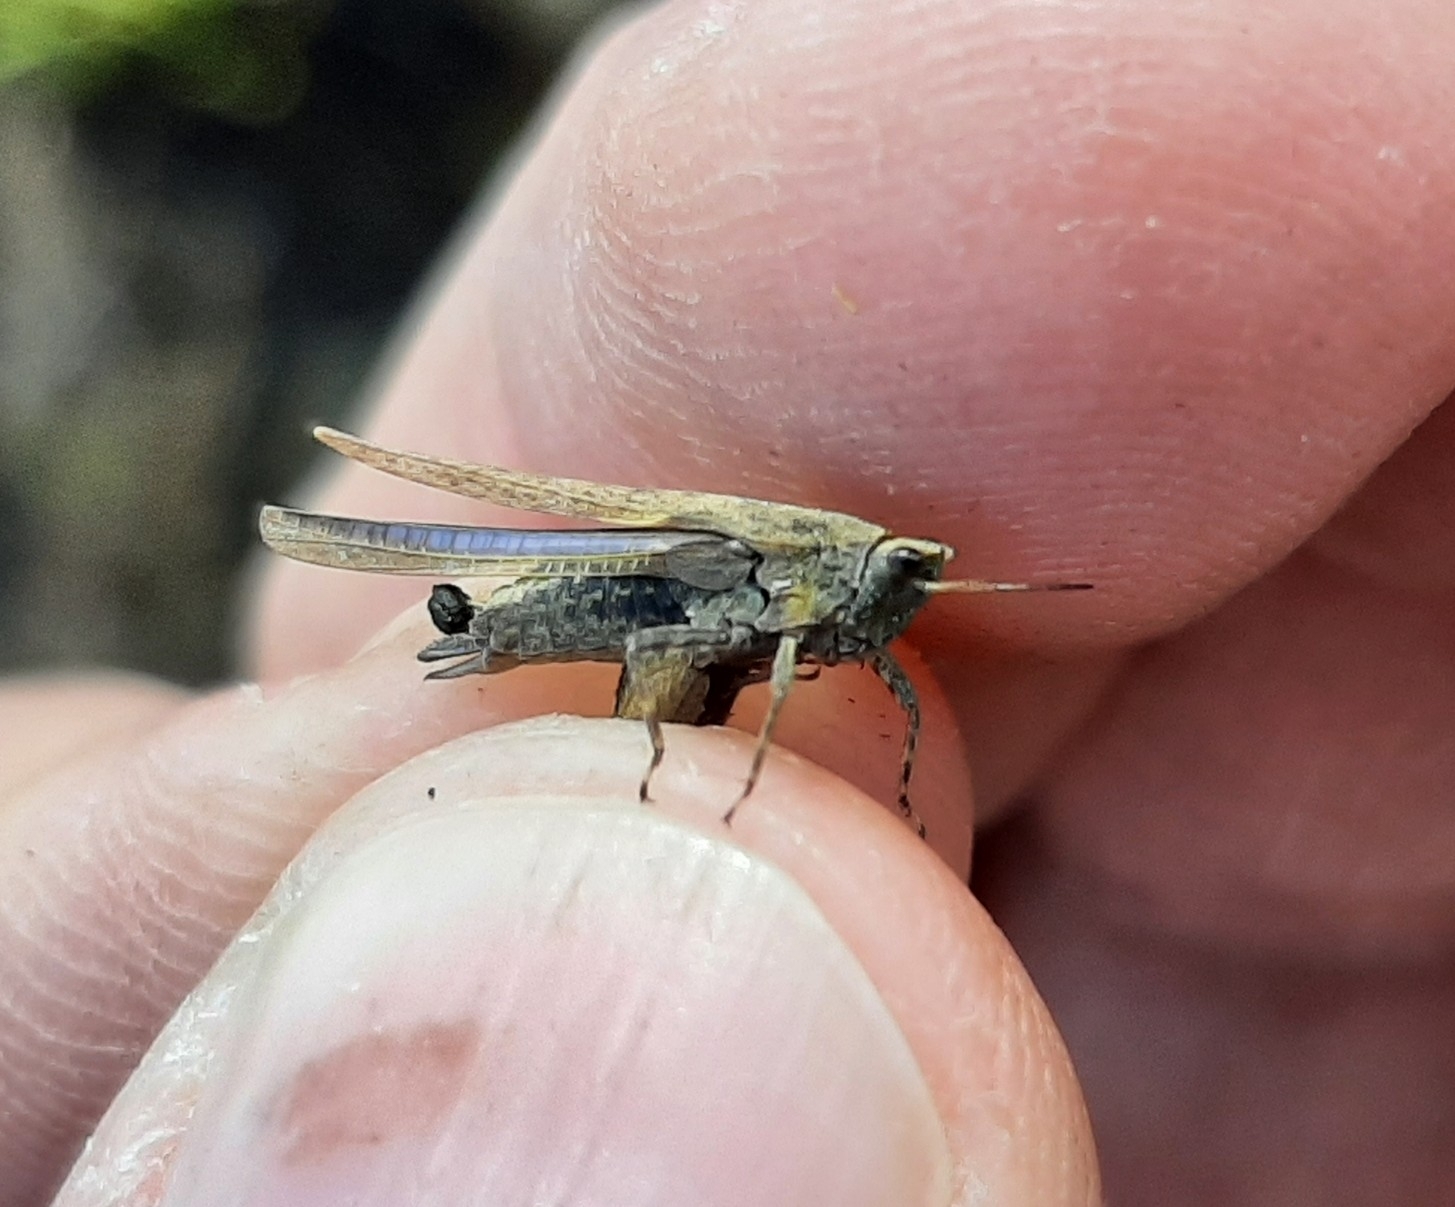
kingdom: Animalia
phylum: Arthropoda
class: Insecta
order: Orthoptera
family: Tetrigidae
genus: Tetrix
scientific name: Tetrix subulata
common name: Slender ground-hopper
